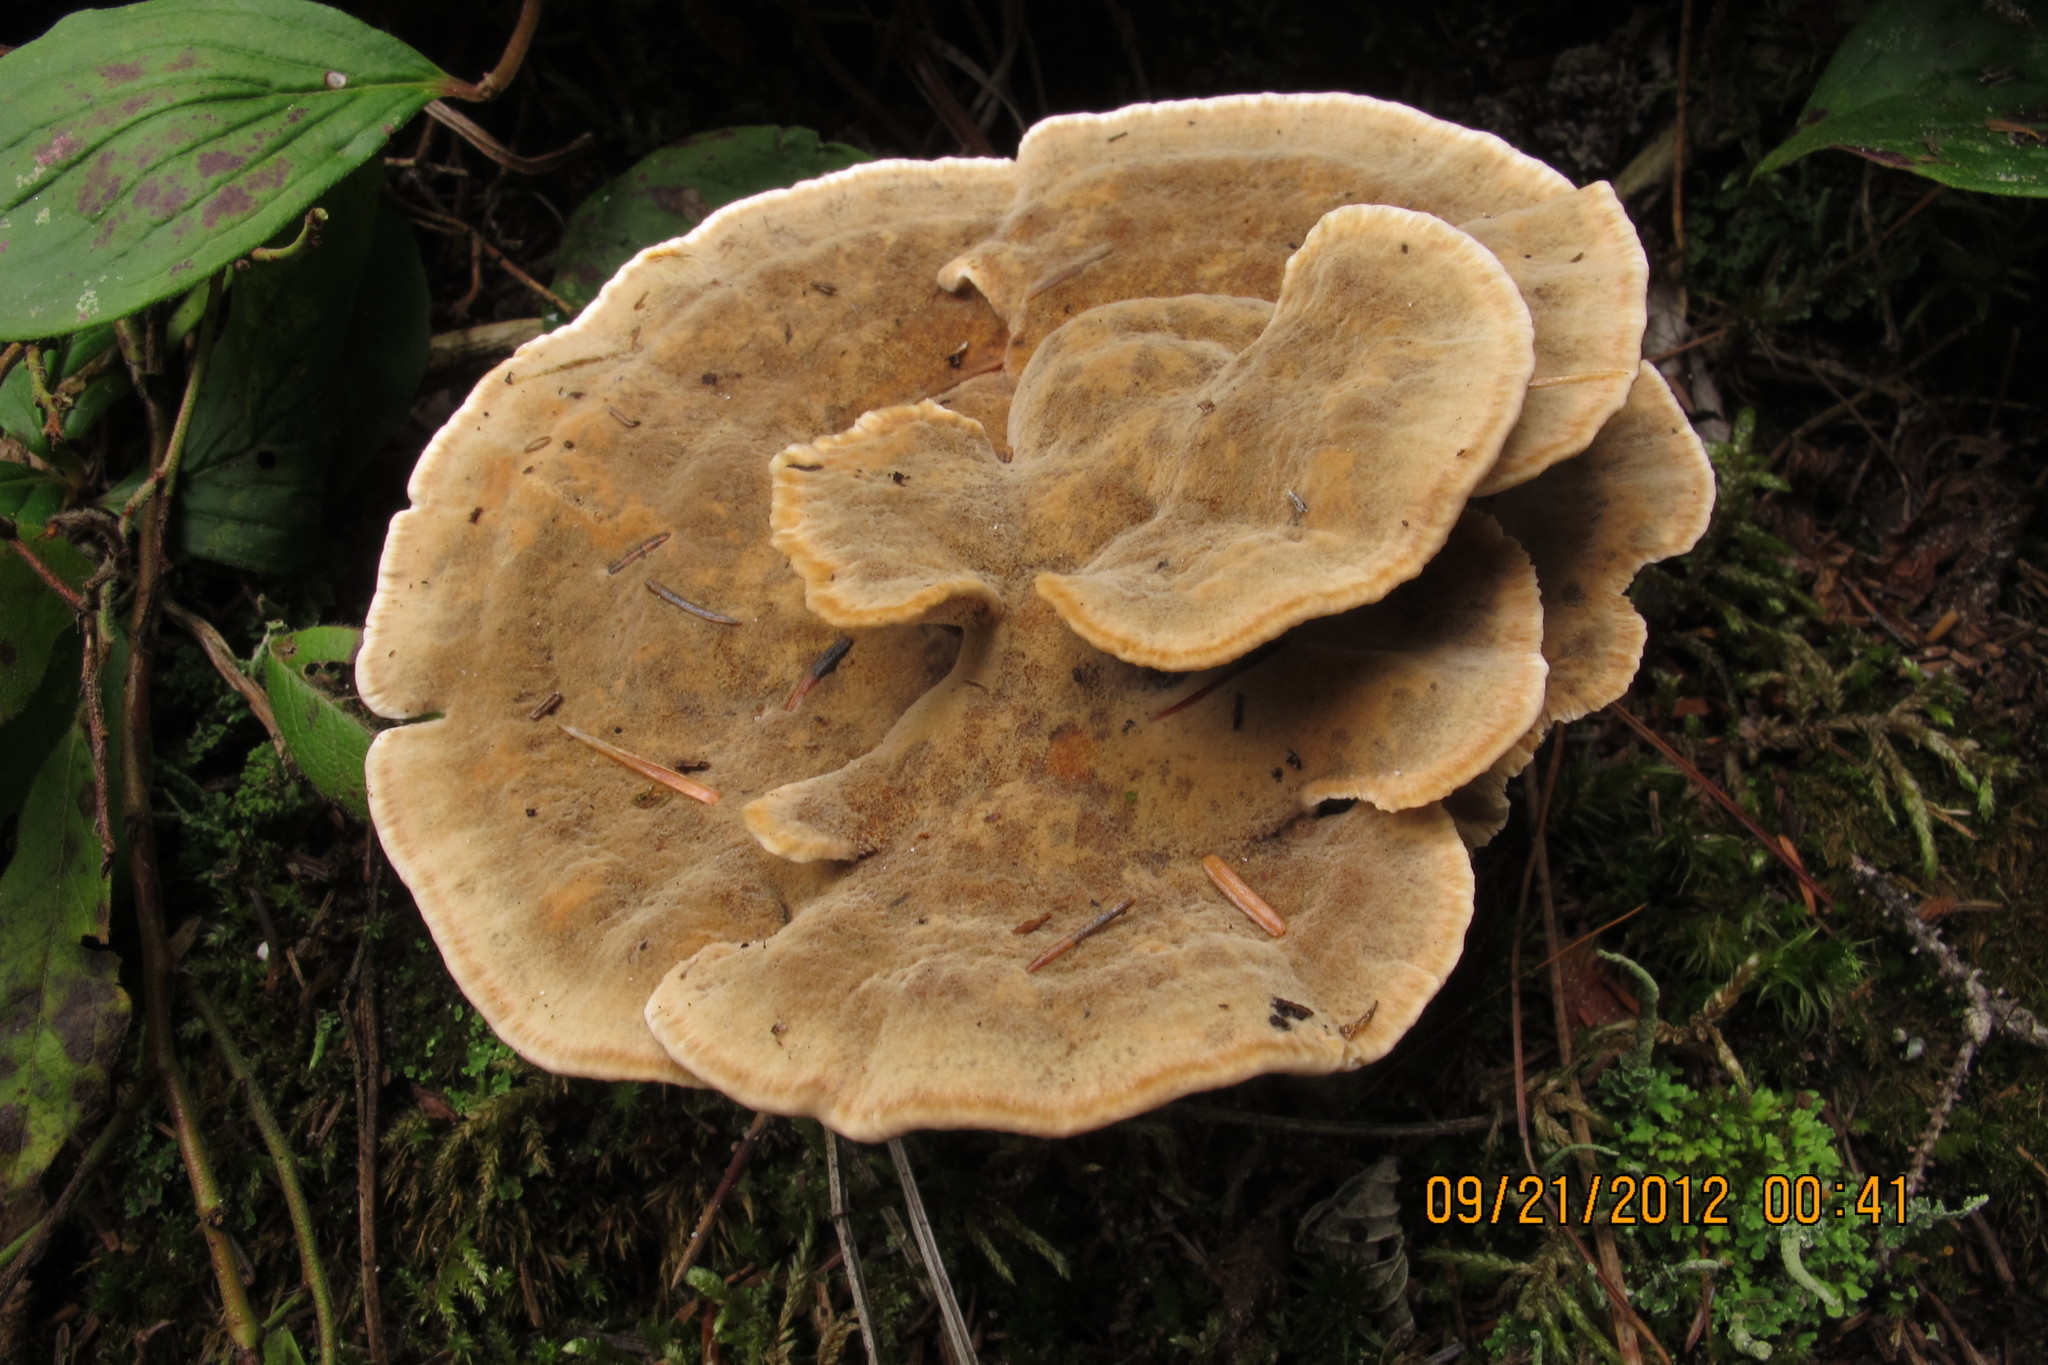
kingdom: Fungi
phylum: Basidiomycota
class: Agaricomycetes
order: Hymenochaetales
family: Hymenochaetaceae
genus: Onnia
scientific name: Onnia tomentosa
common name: Velvet rosette
